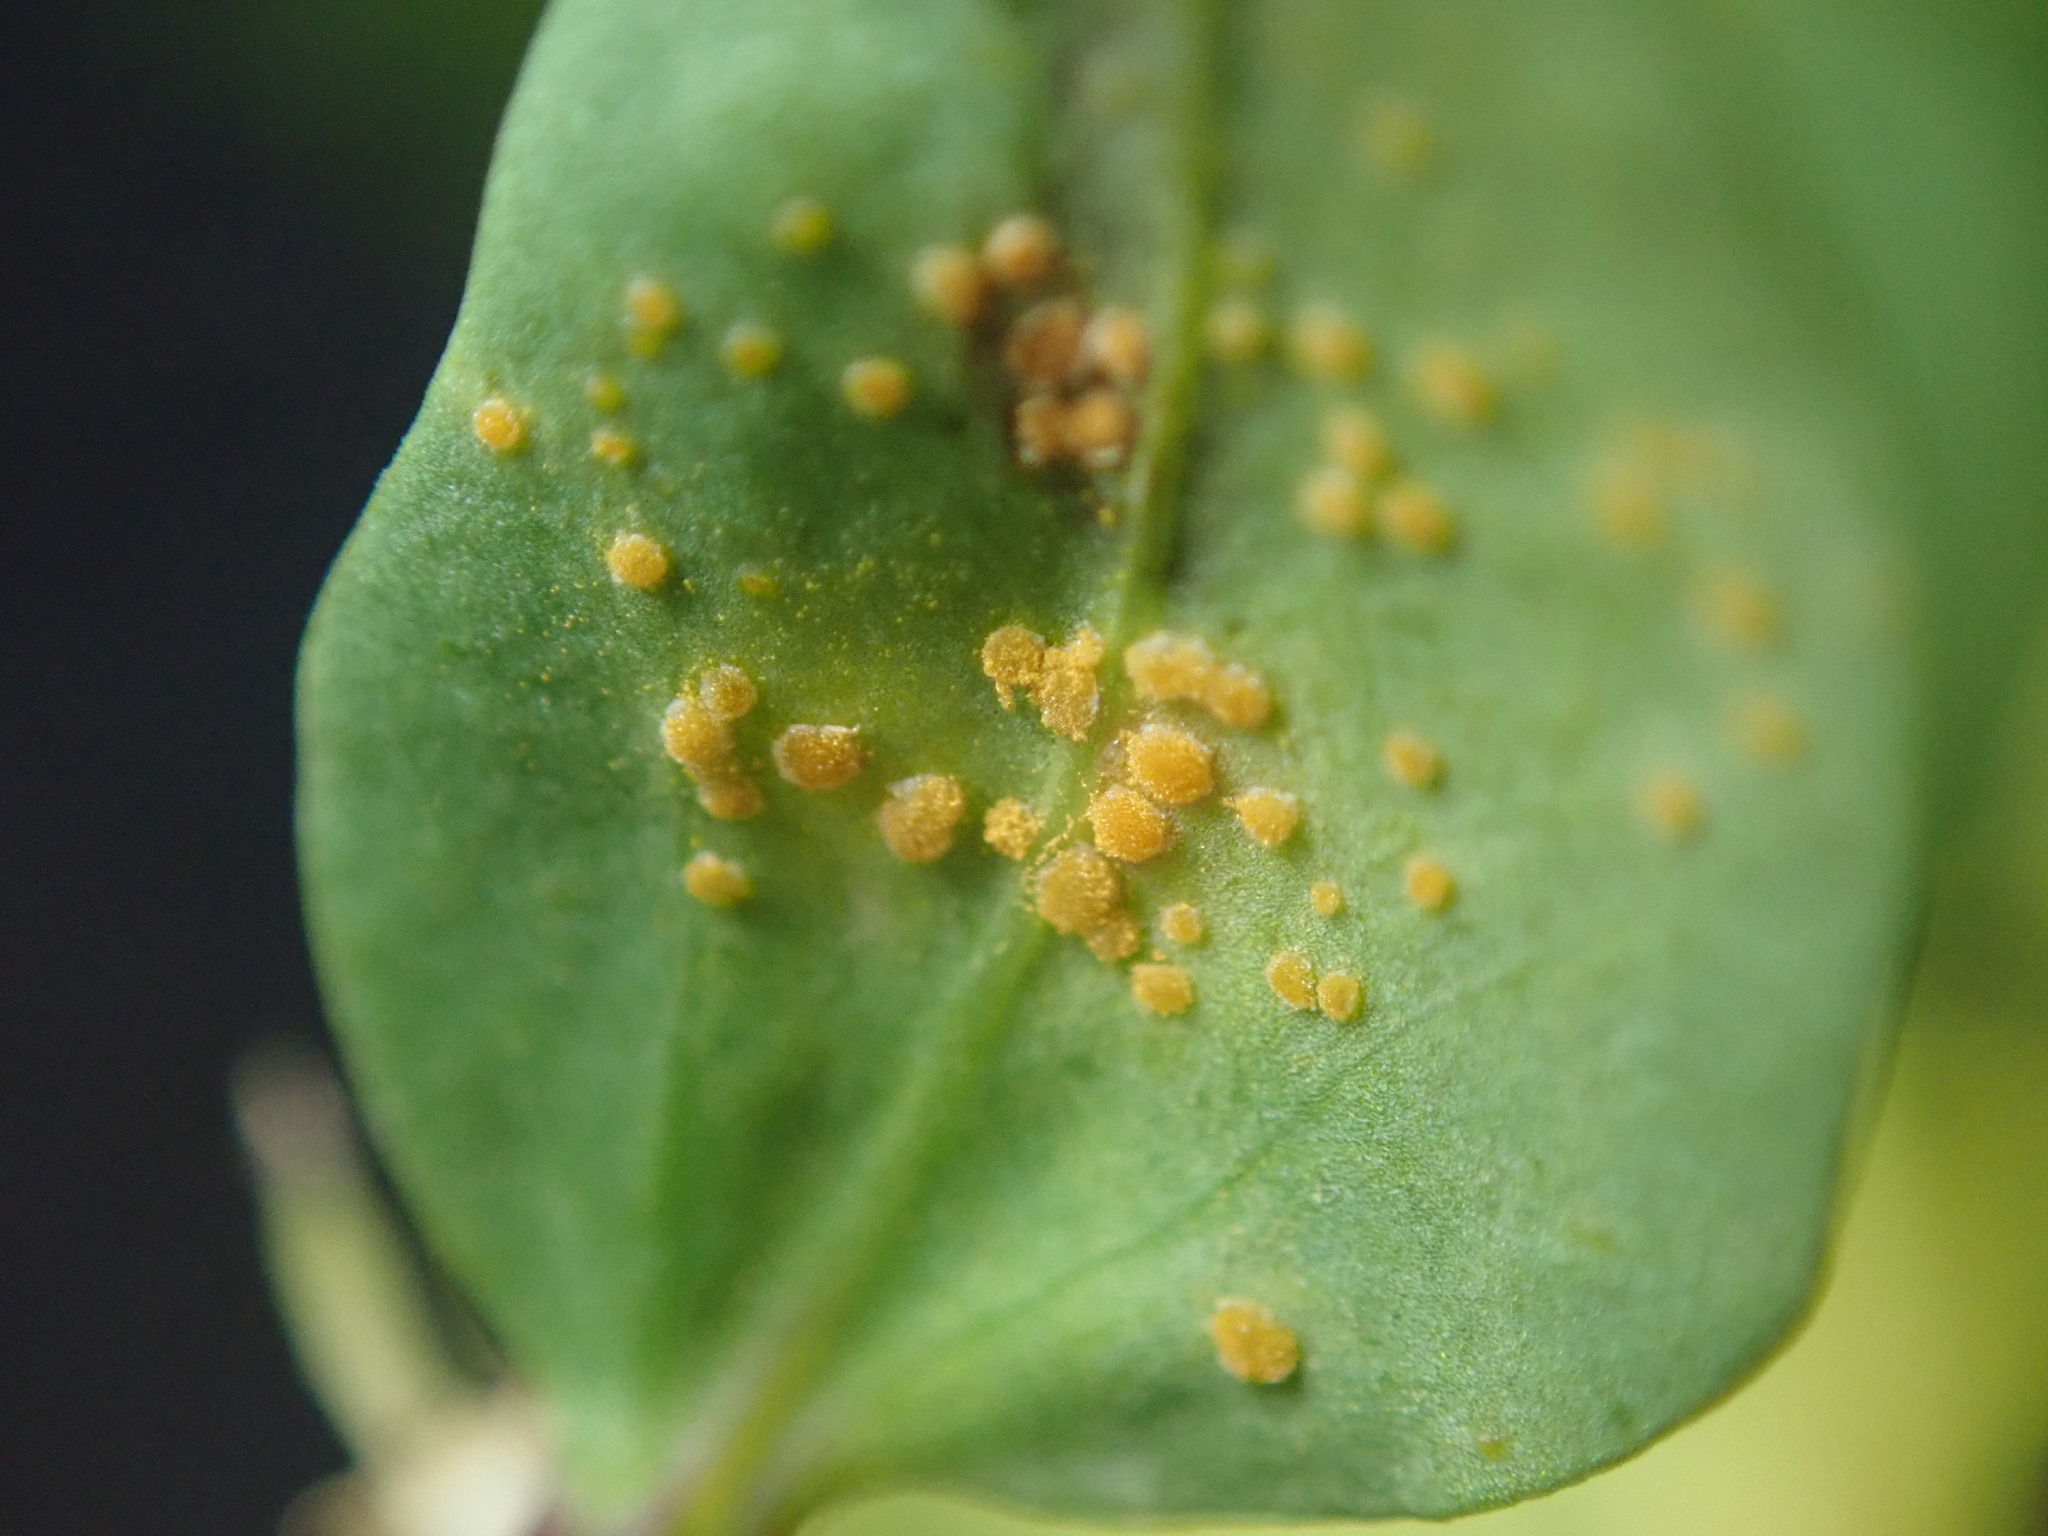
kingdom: Fungi
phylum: Basidiomycota
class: Pucciniomycetes
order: Pucciniales
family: Melampsoraceae
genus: Melampsora
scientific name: Melampsora euphorbiae
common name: Spurge rust
